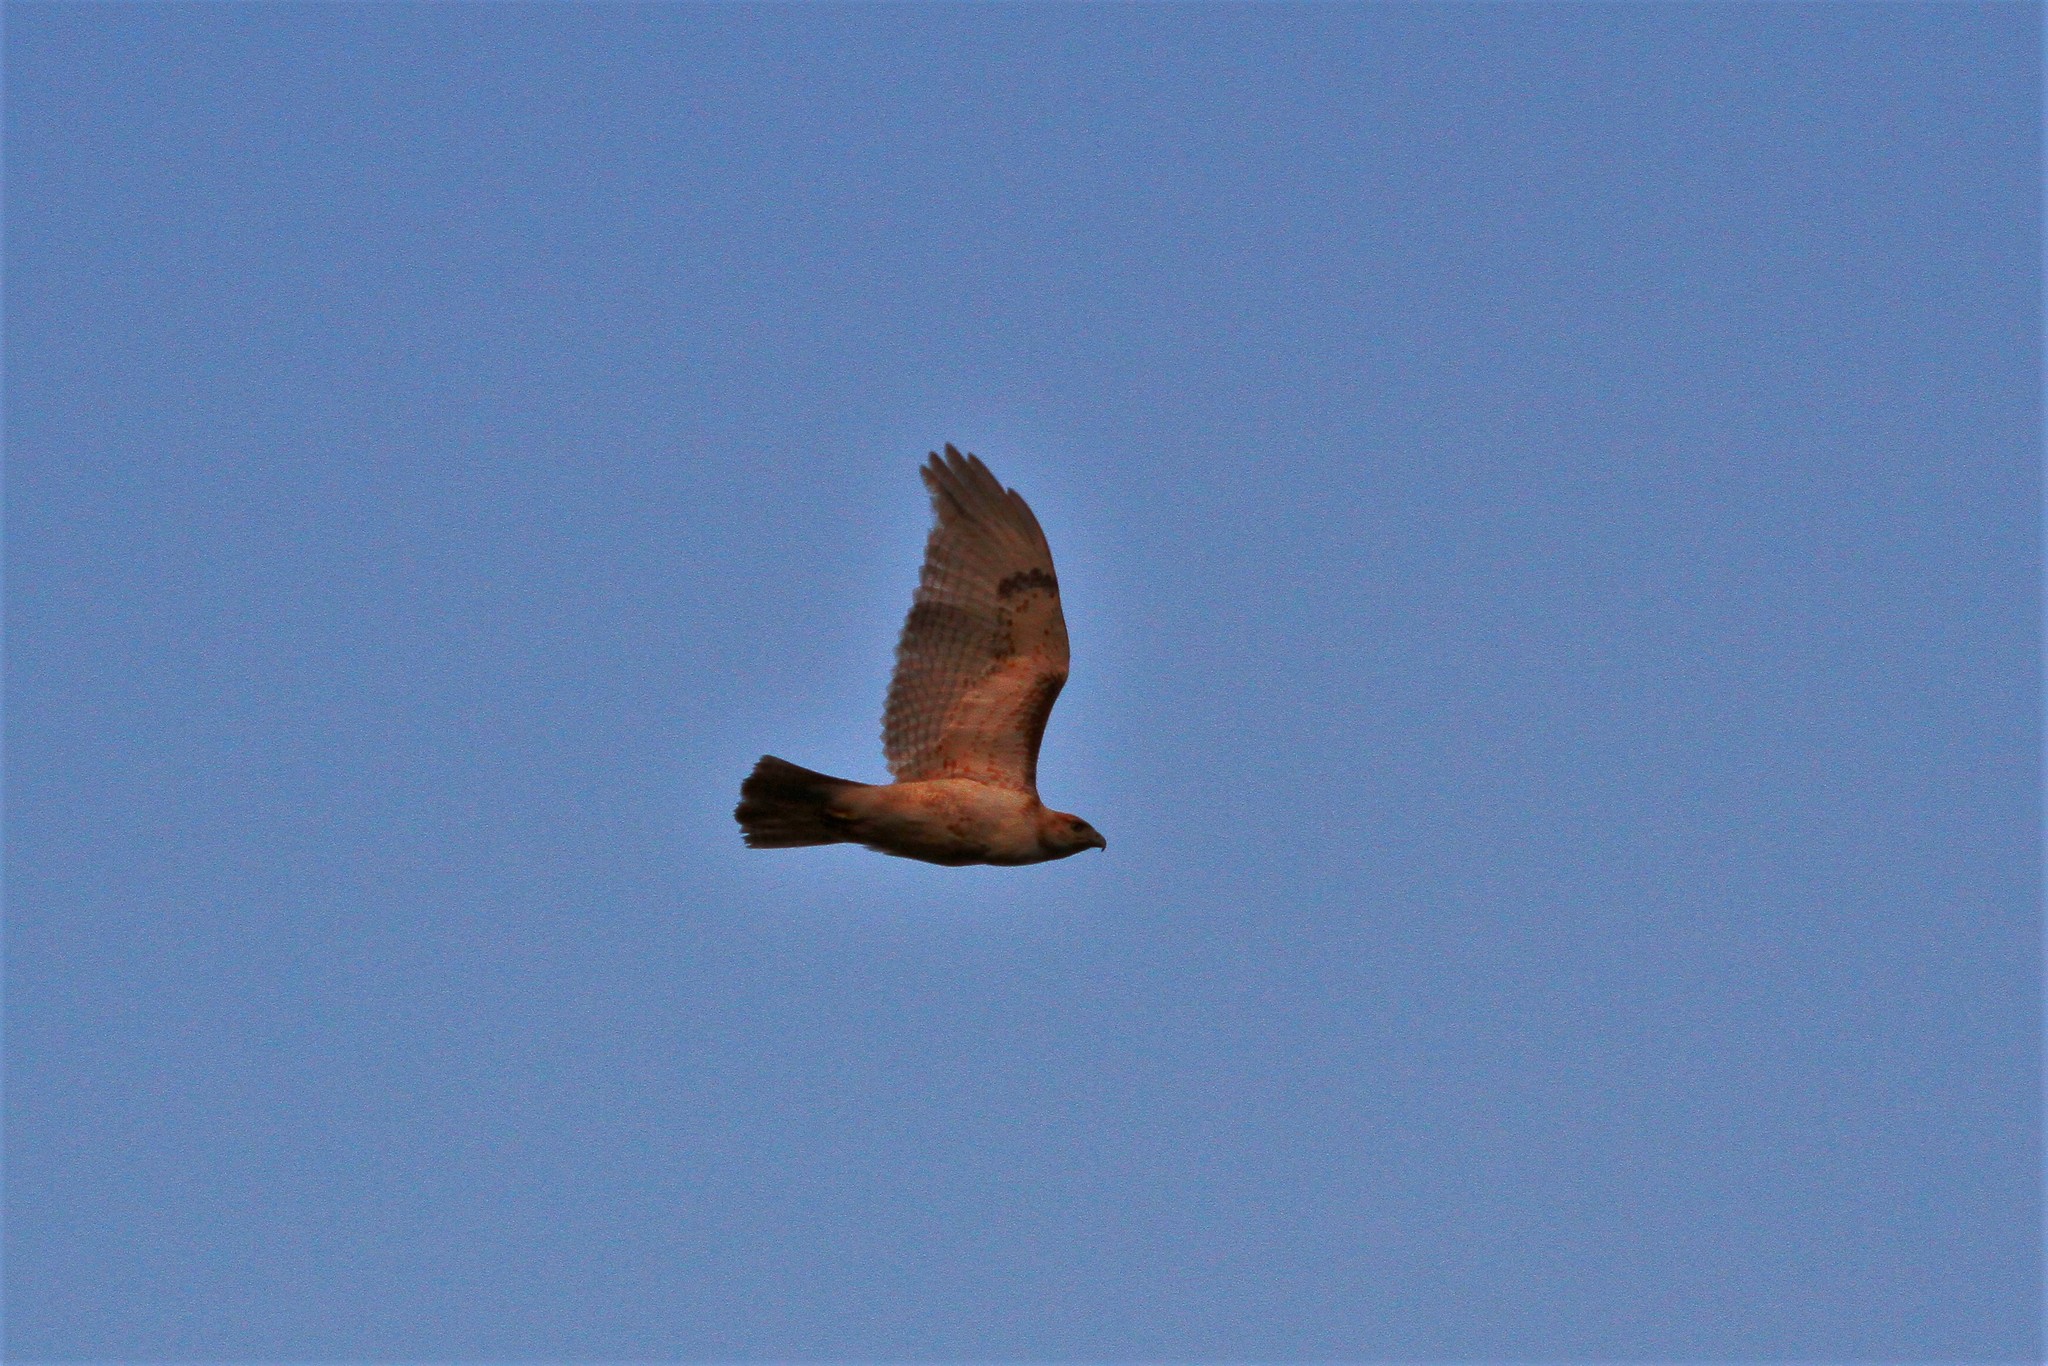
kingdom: Animalia
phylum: Chordata
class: Aves
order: Accipitriformes
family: Accipitridae
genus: Buteo
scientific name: Buteo jamaicensis
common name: Red-tailed hawk
